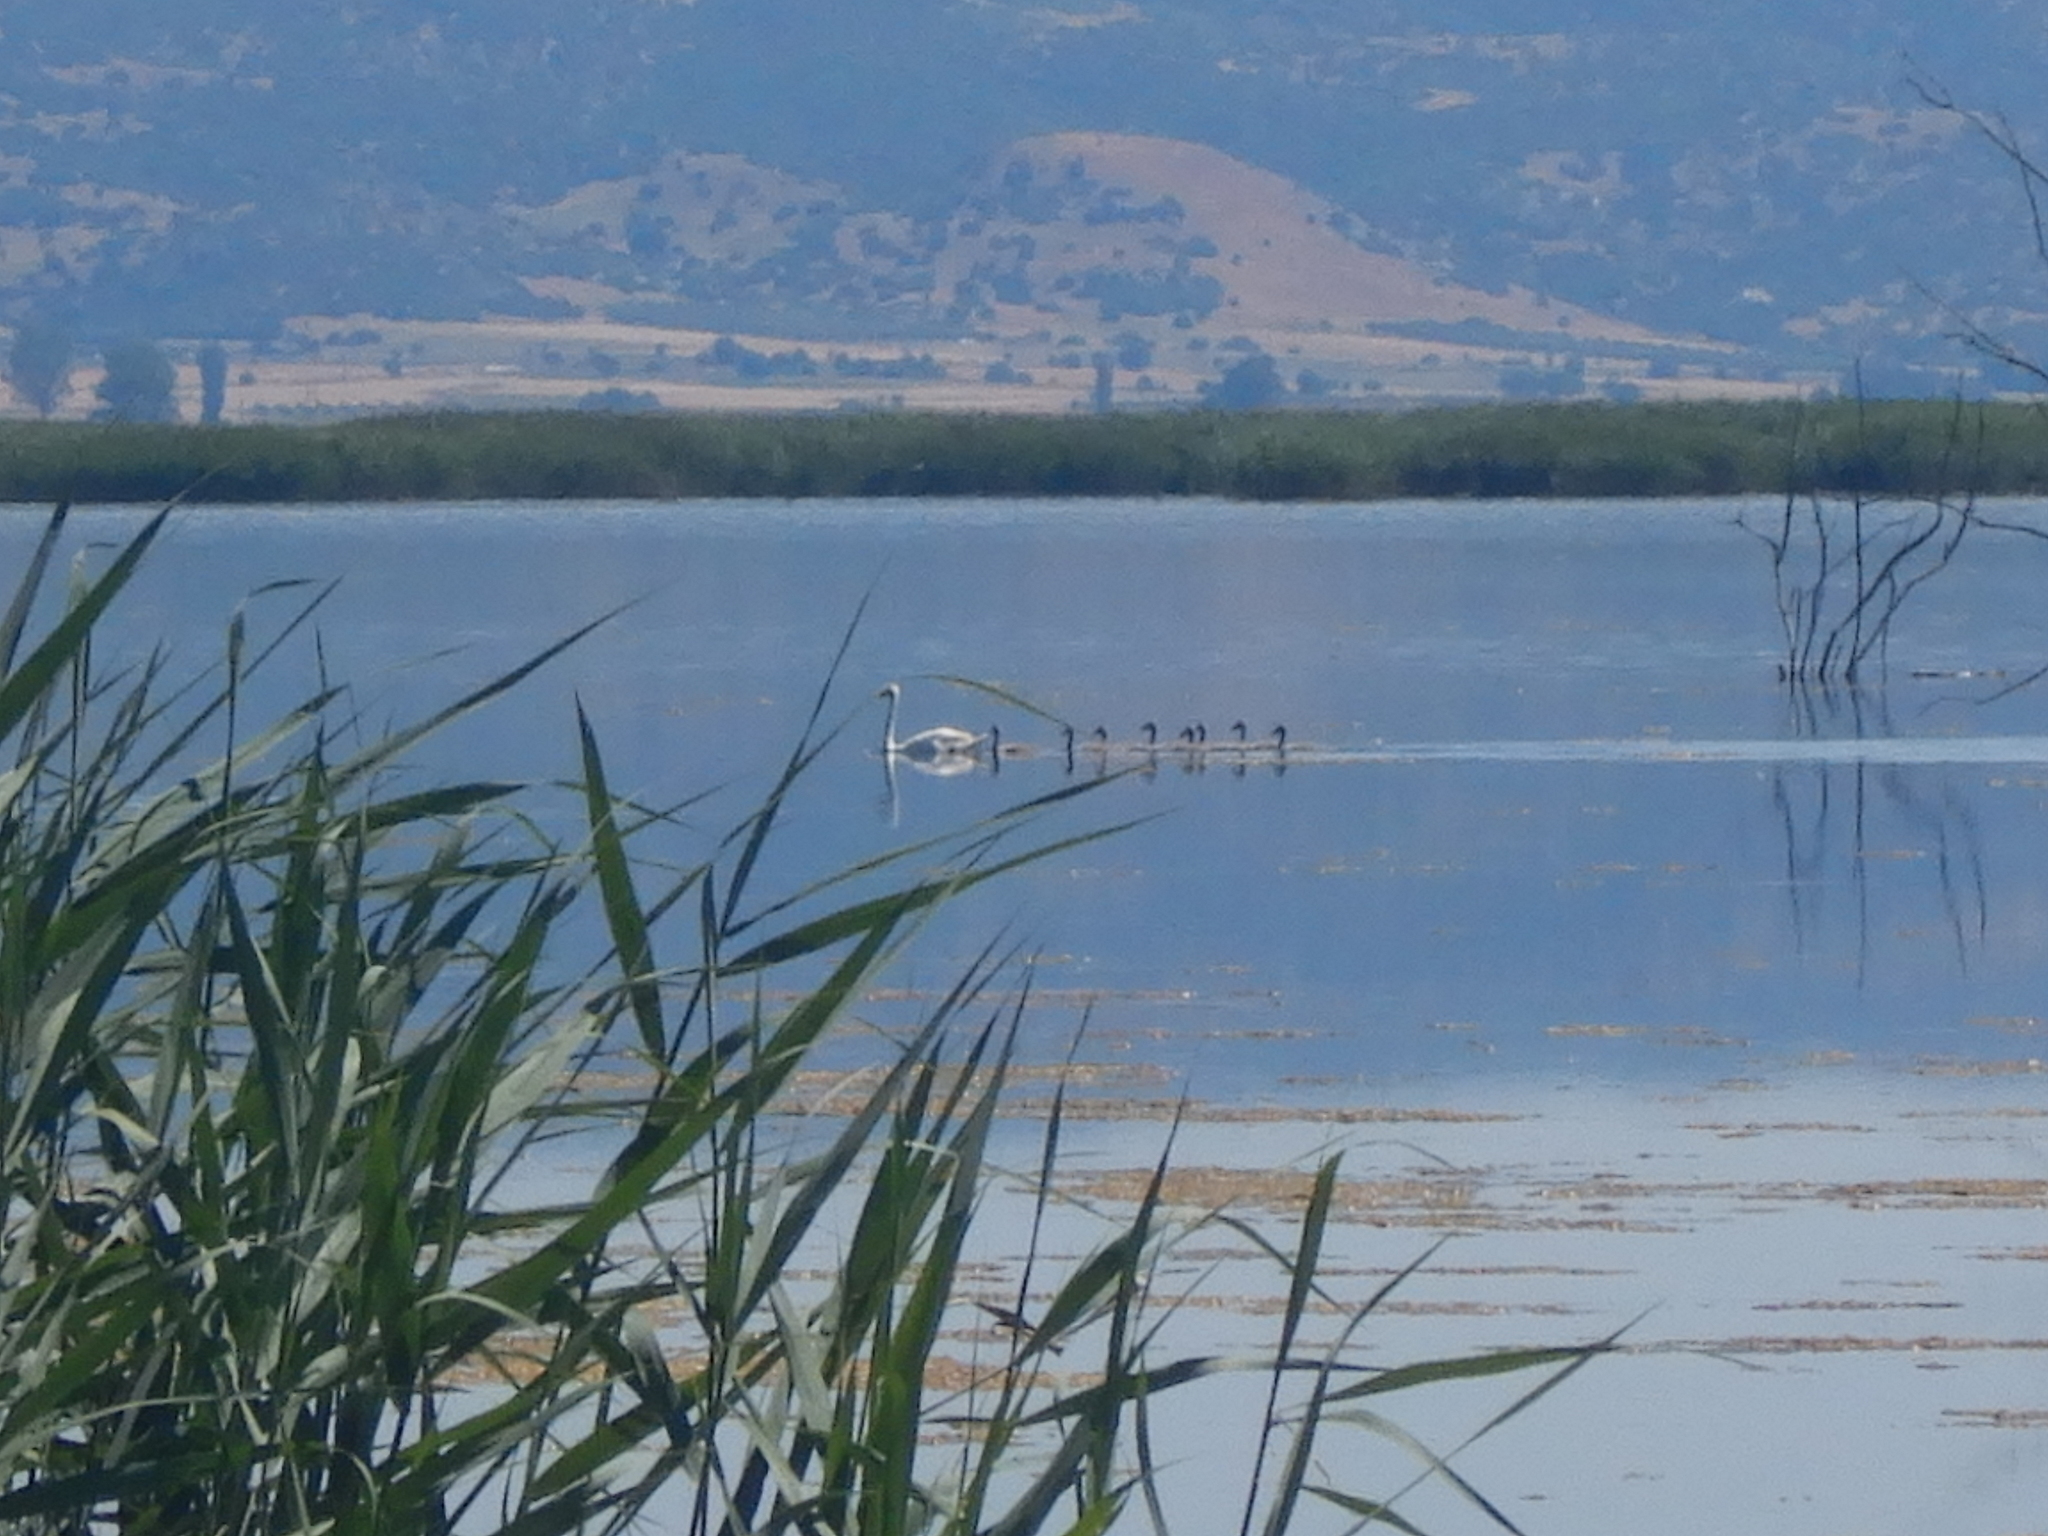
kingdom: Animalia
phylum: Chordata
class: Aves
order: Anseriformes
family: Anatidae
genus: Cygnus
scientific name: Cygnus
